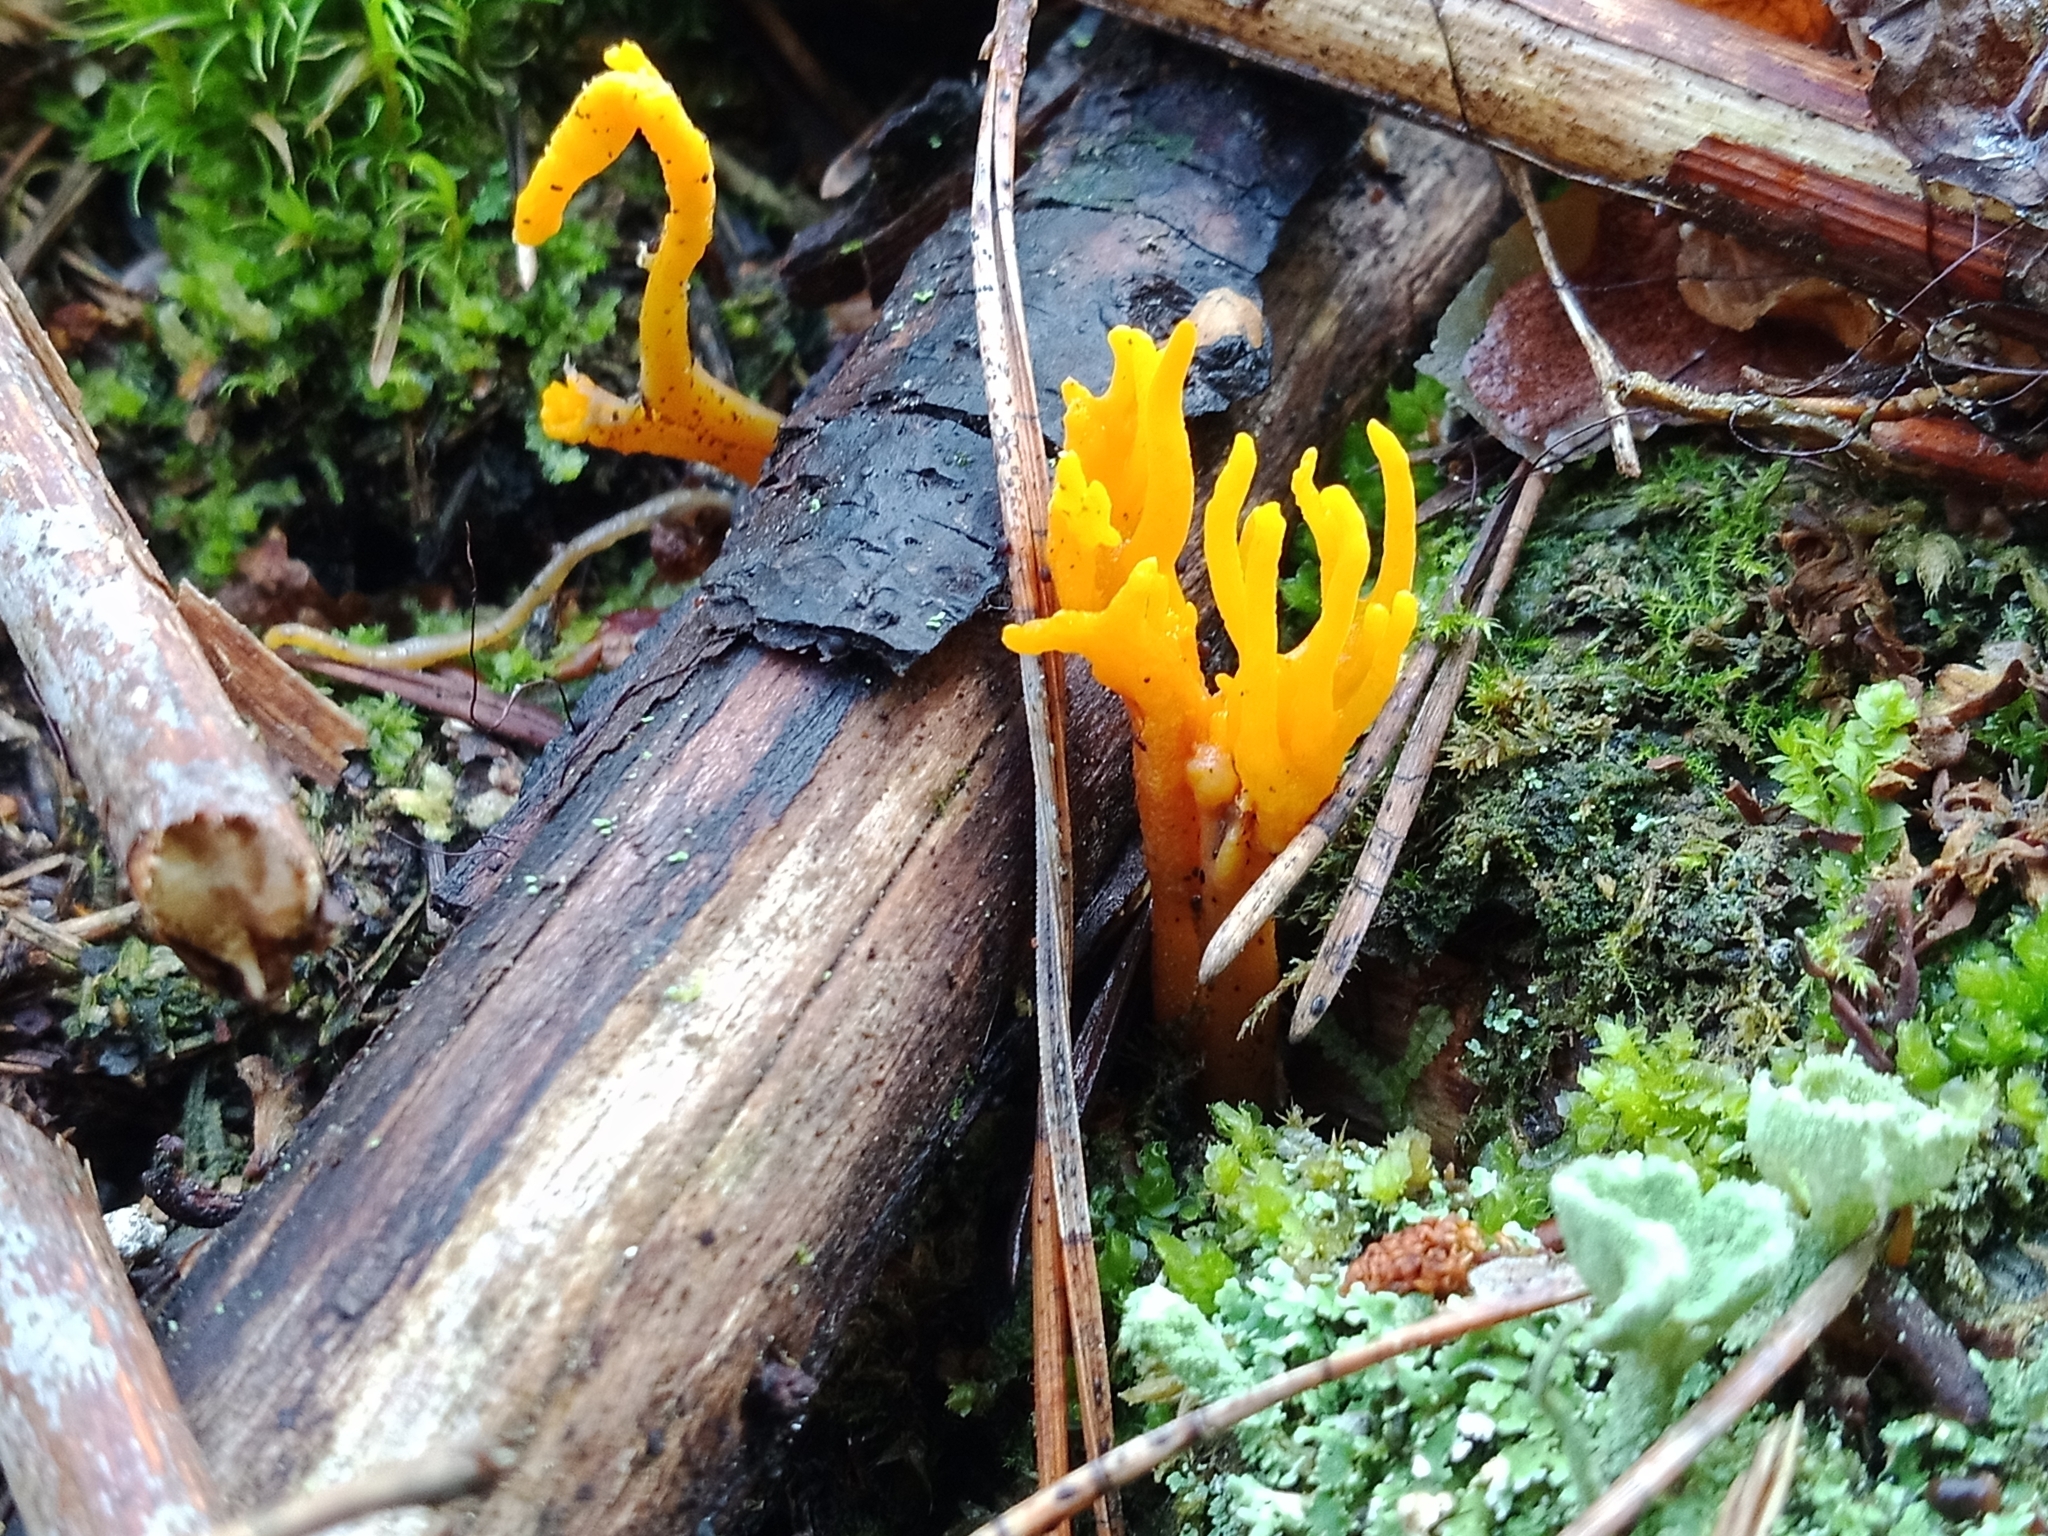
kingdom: Fungi
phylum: Basidiomycota
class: Dacrymycetes
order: Dacrymycetales
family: Dacrymycetaceae
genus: Calocera
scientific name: Calocera viscosa
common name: Yellow stagshorn
